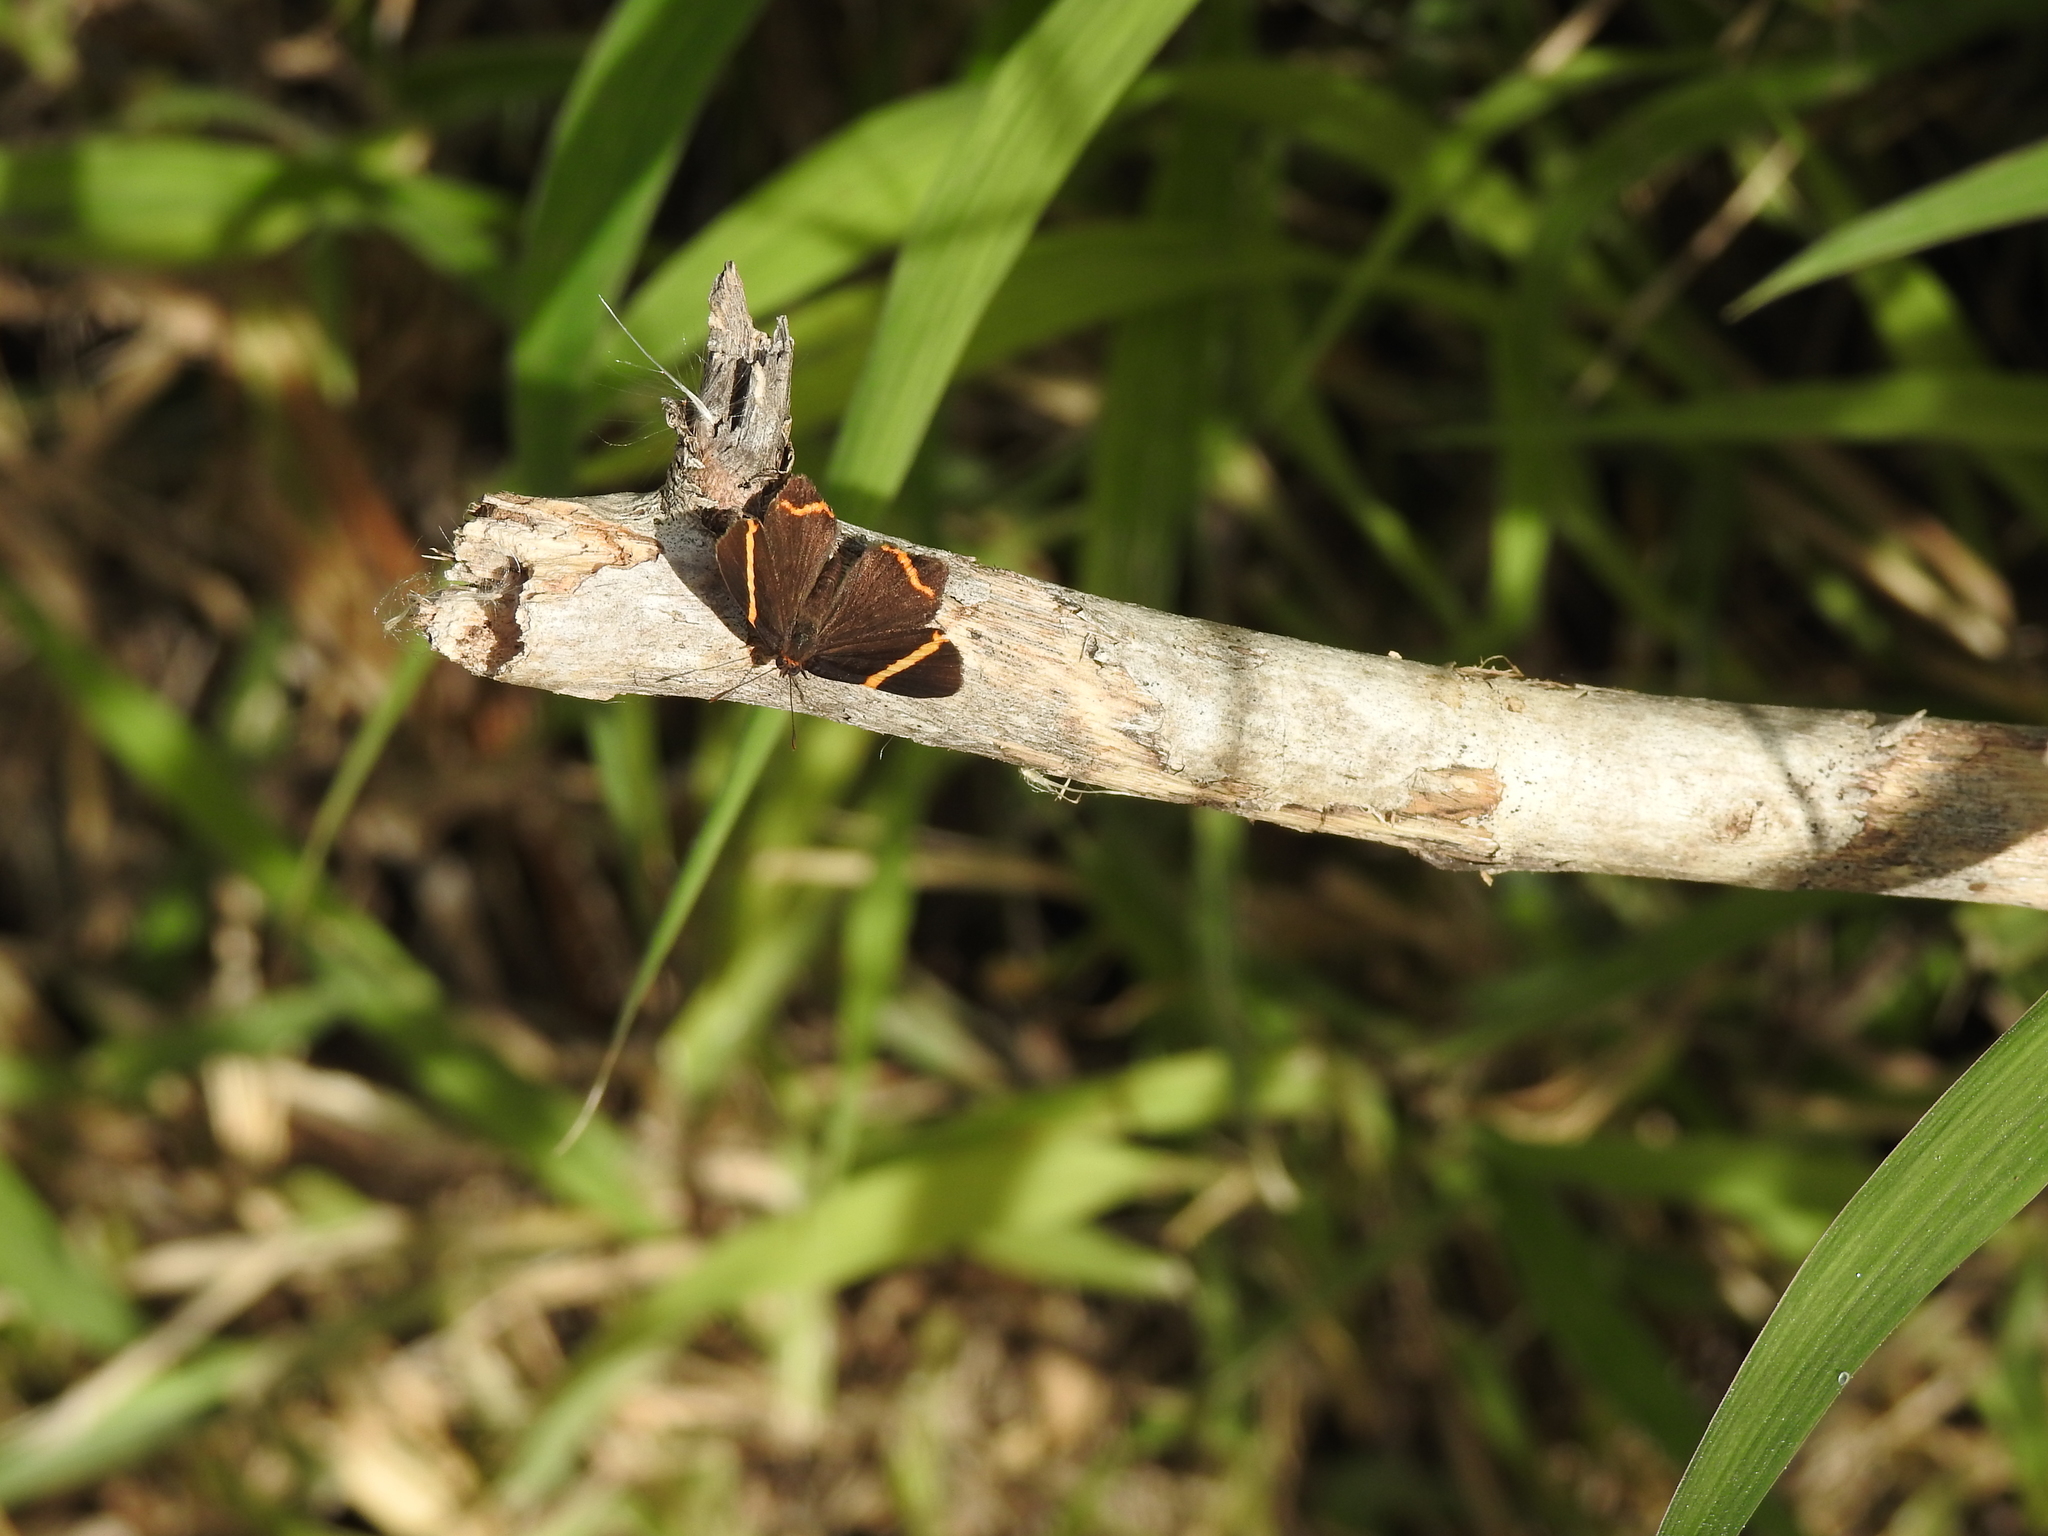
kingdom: Animalia
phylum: Arthropoda
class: Insecta
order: Lepidoptera
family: Riodinidae
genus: Riodina
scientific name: Riodina lysippoides
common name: Little dancer metalmark
